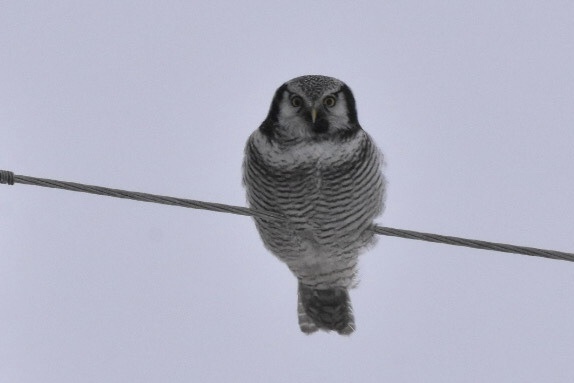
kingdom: Animalia
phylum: Chordata
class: Aves
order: Strigiformes
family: Strigidae
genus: Surnia
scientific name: Surnia ulula
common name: Northern hawk-owl
